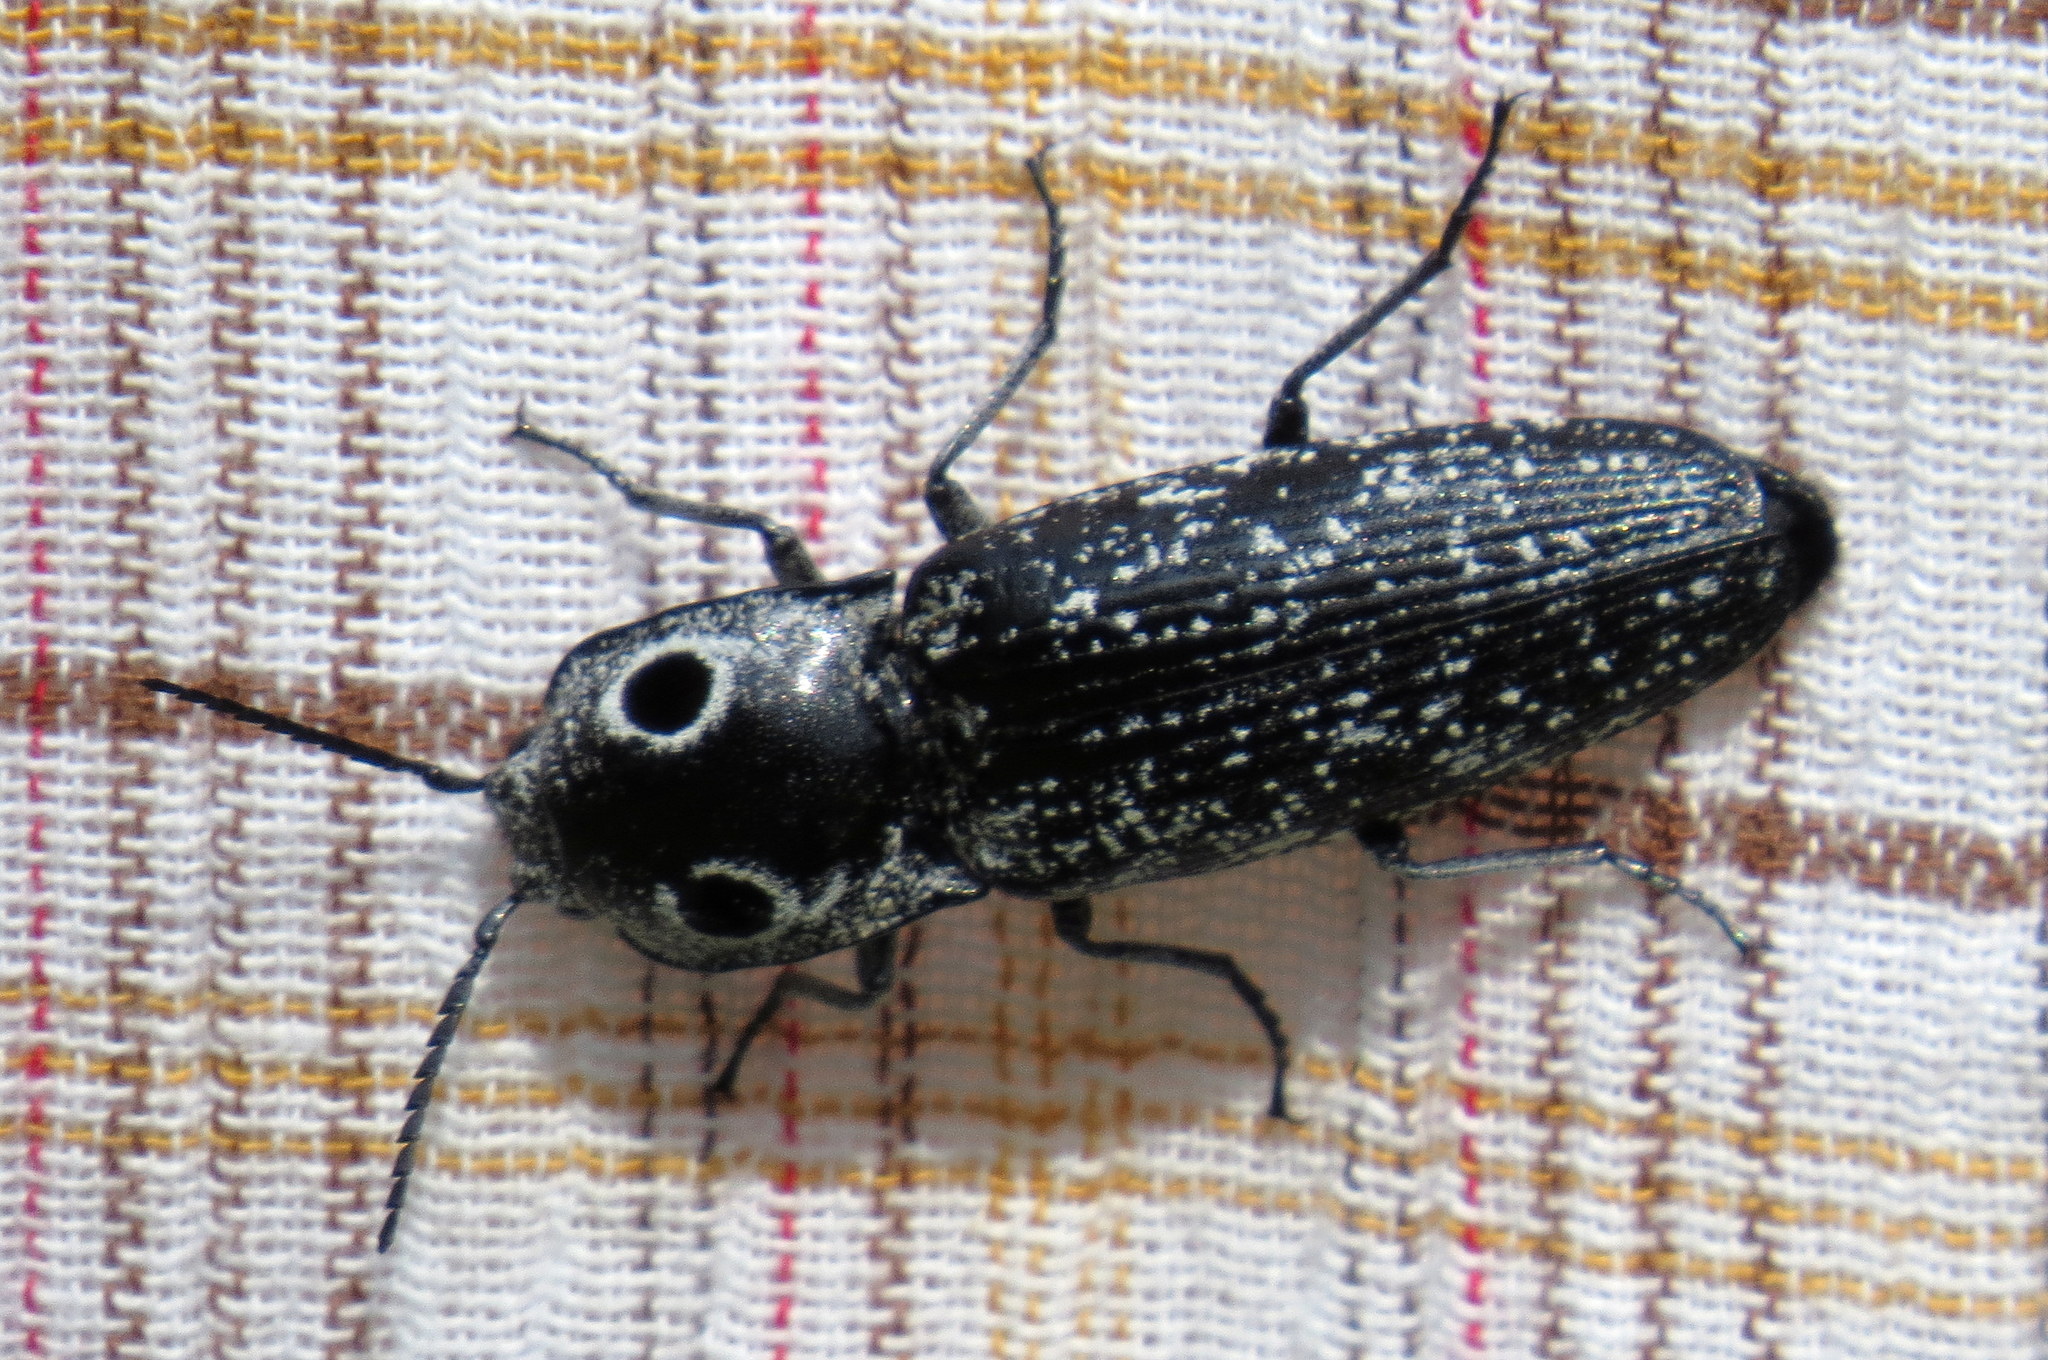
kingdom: Animalia
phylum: Arthropoda
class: Insecta
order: Coleoptera
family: Elateridae
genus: Alaus
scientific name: Alaus oculatus
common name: Eastern eyed click beetle
